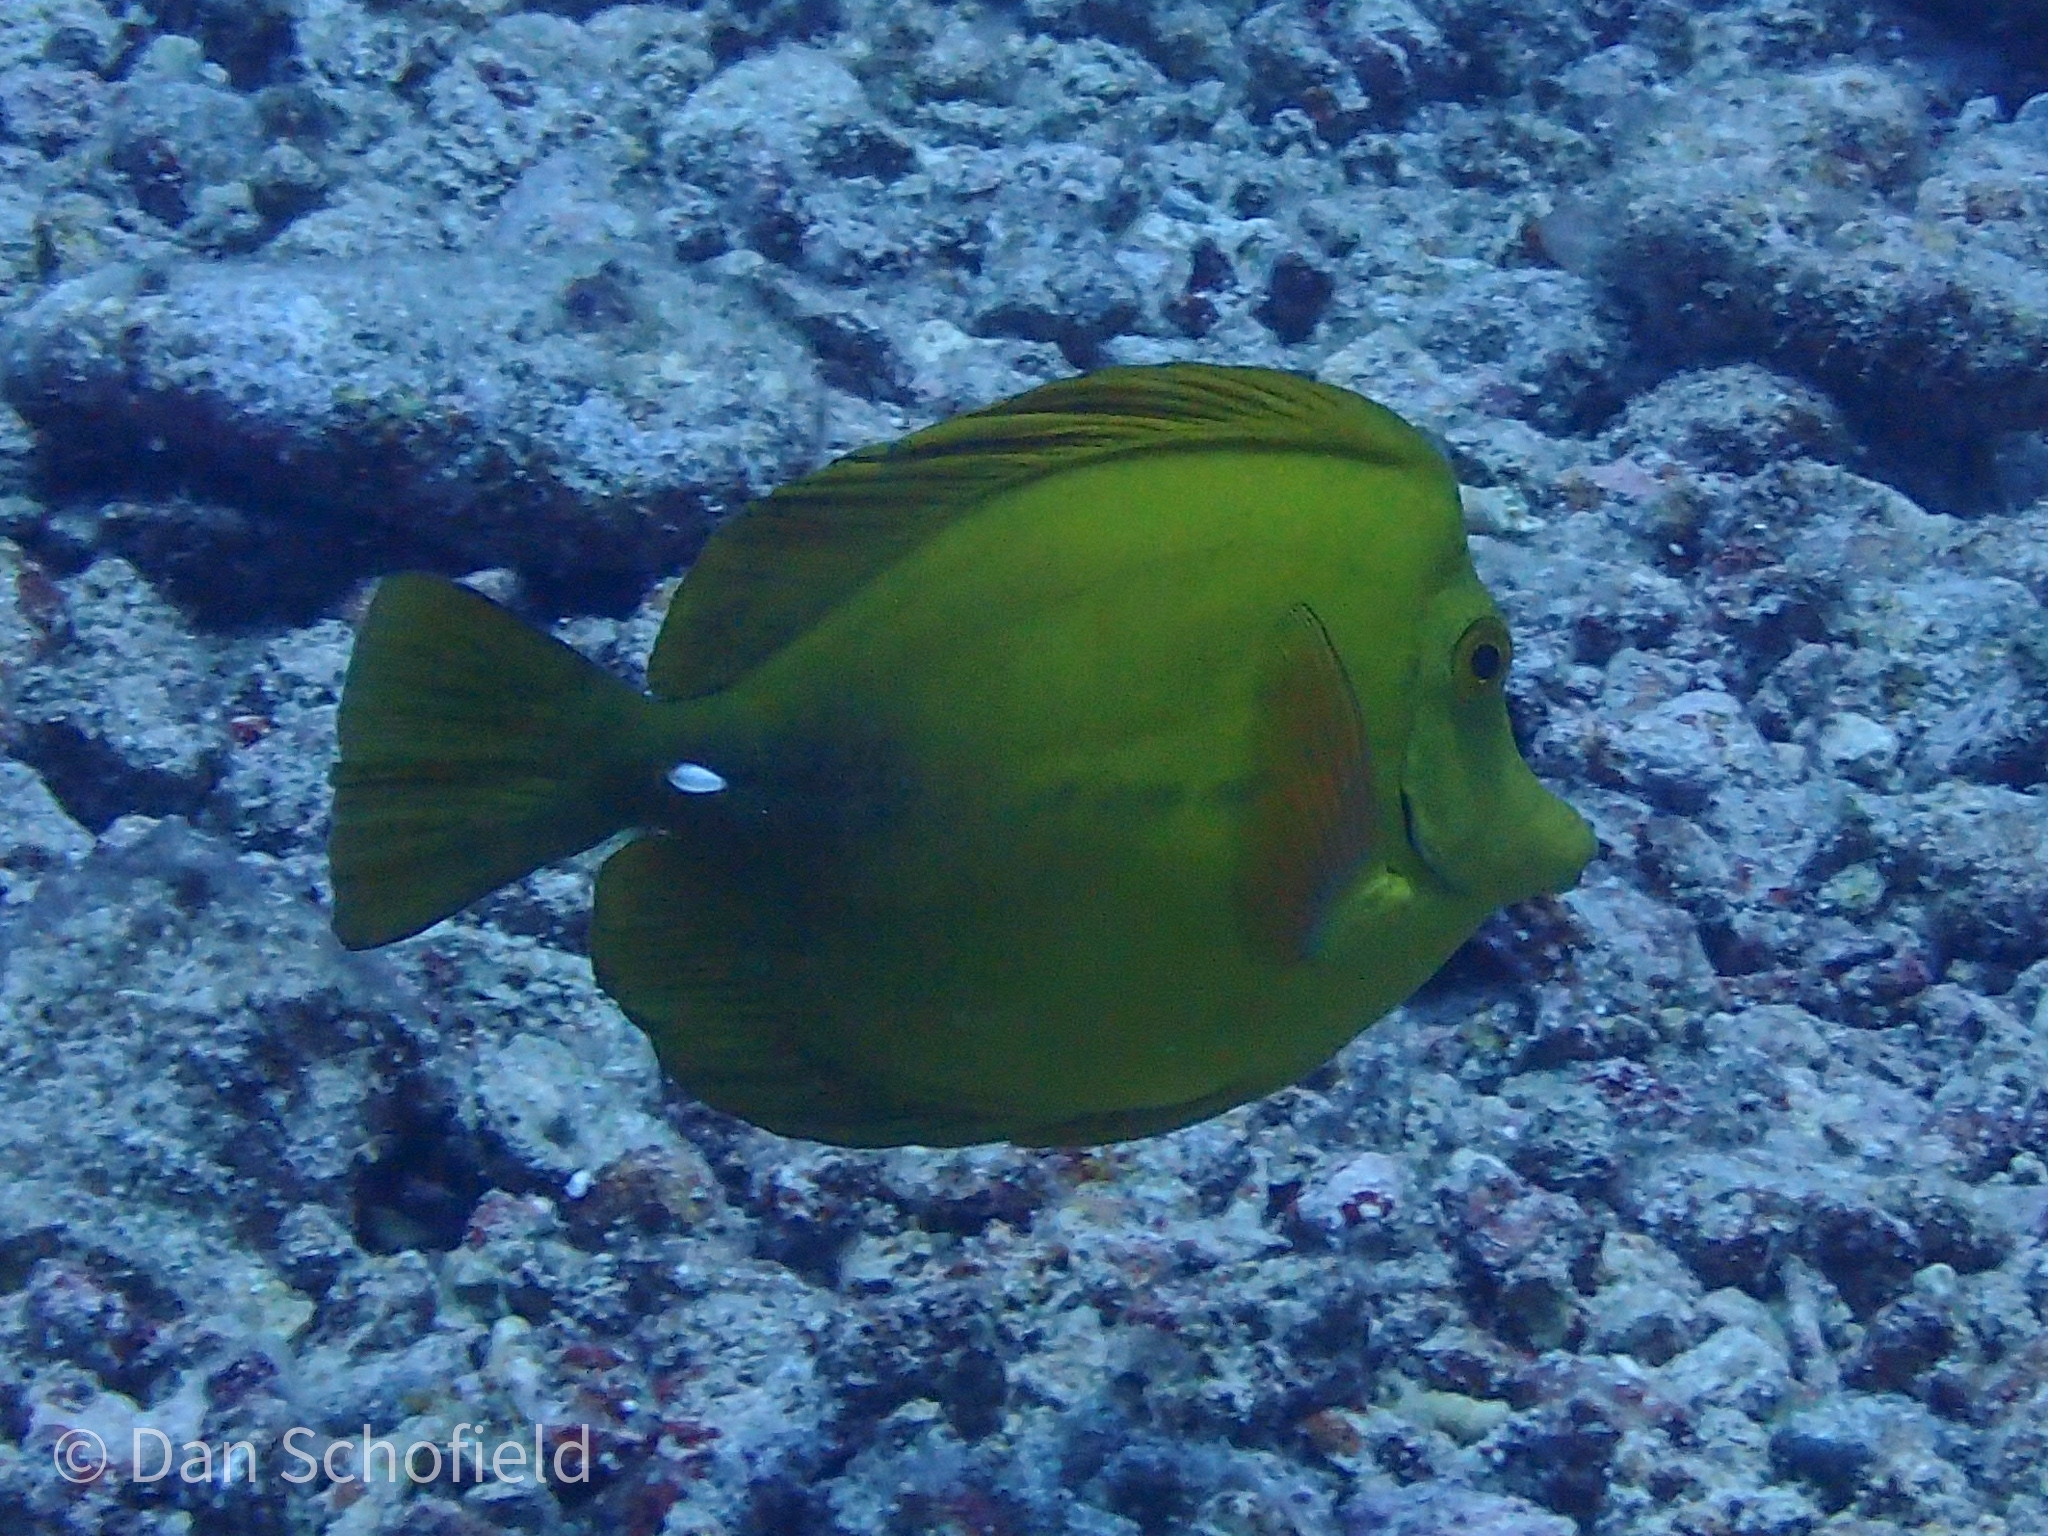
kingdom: Animalia
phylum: Chordata
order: Perciformes
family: Acanthuridae
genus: Zebrasoma
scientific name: Zebrasoma flavescens
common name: Yellow tang
